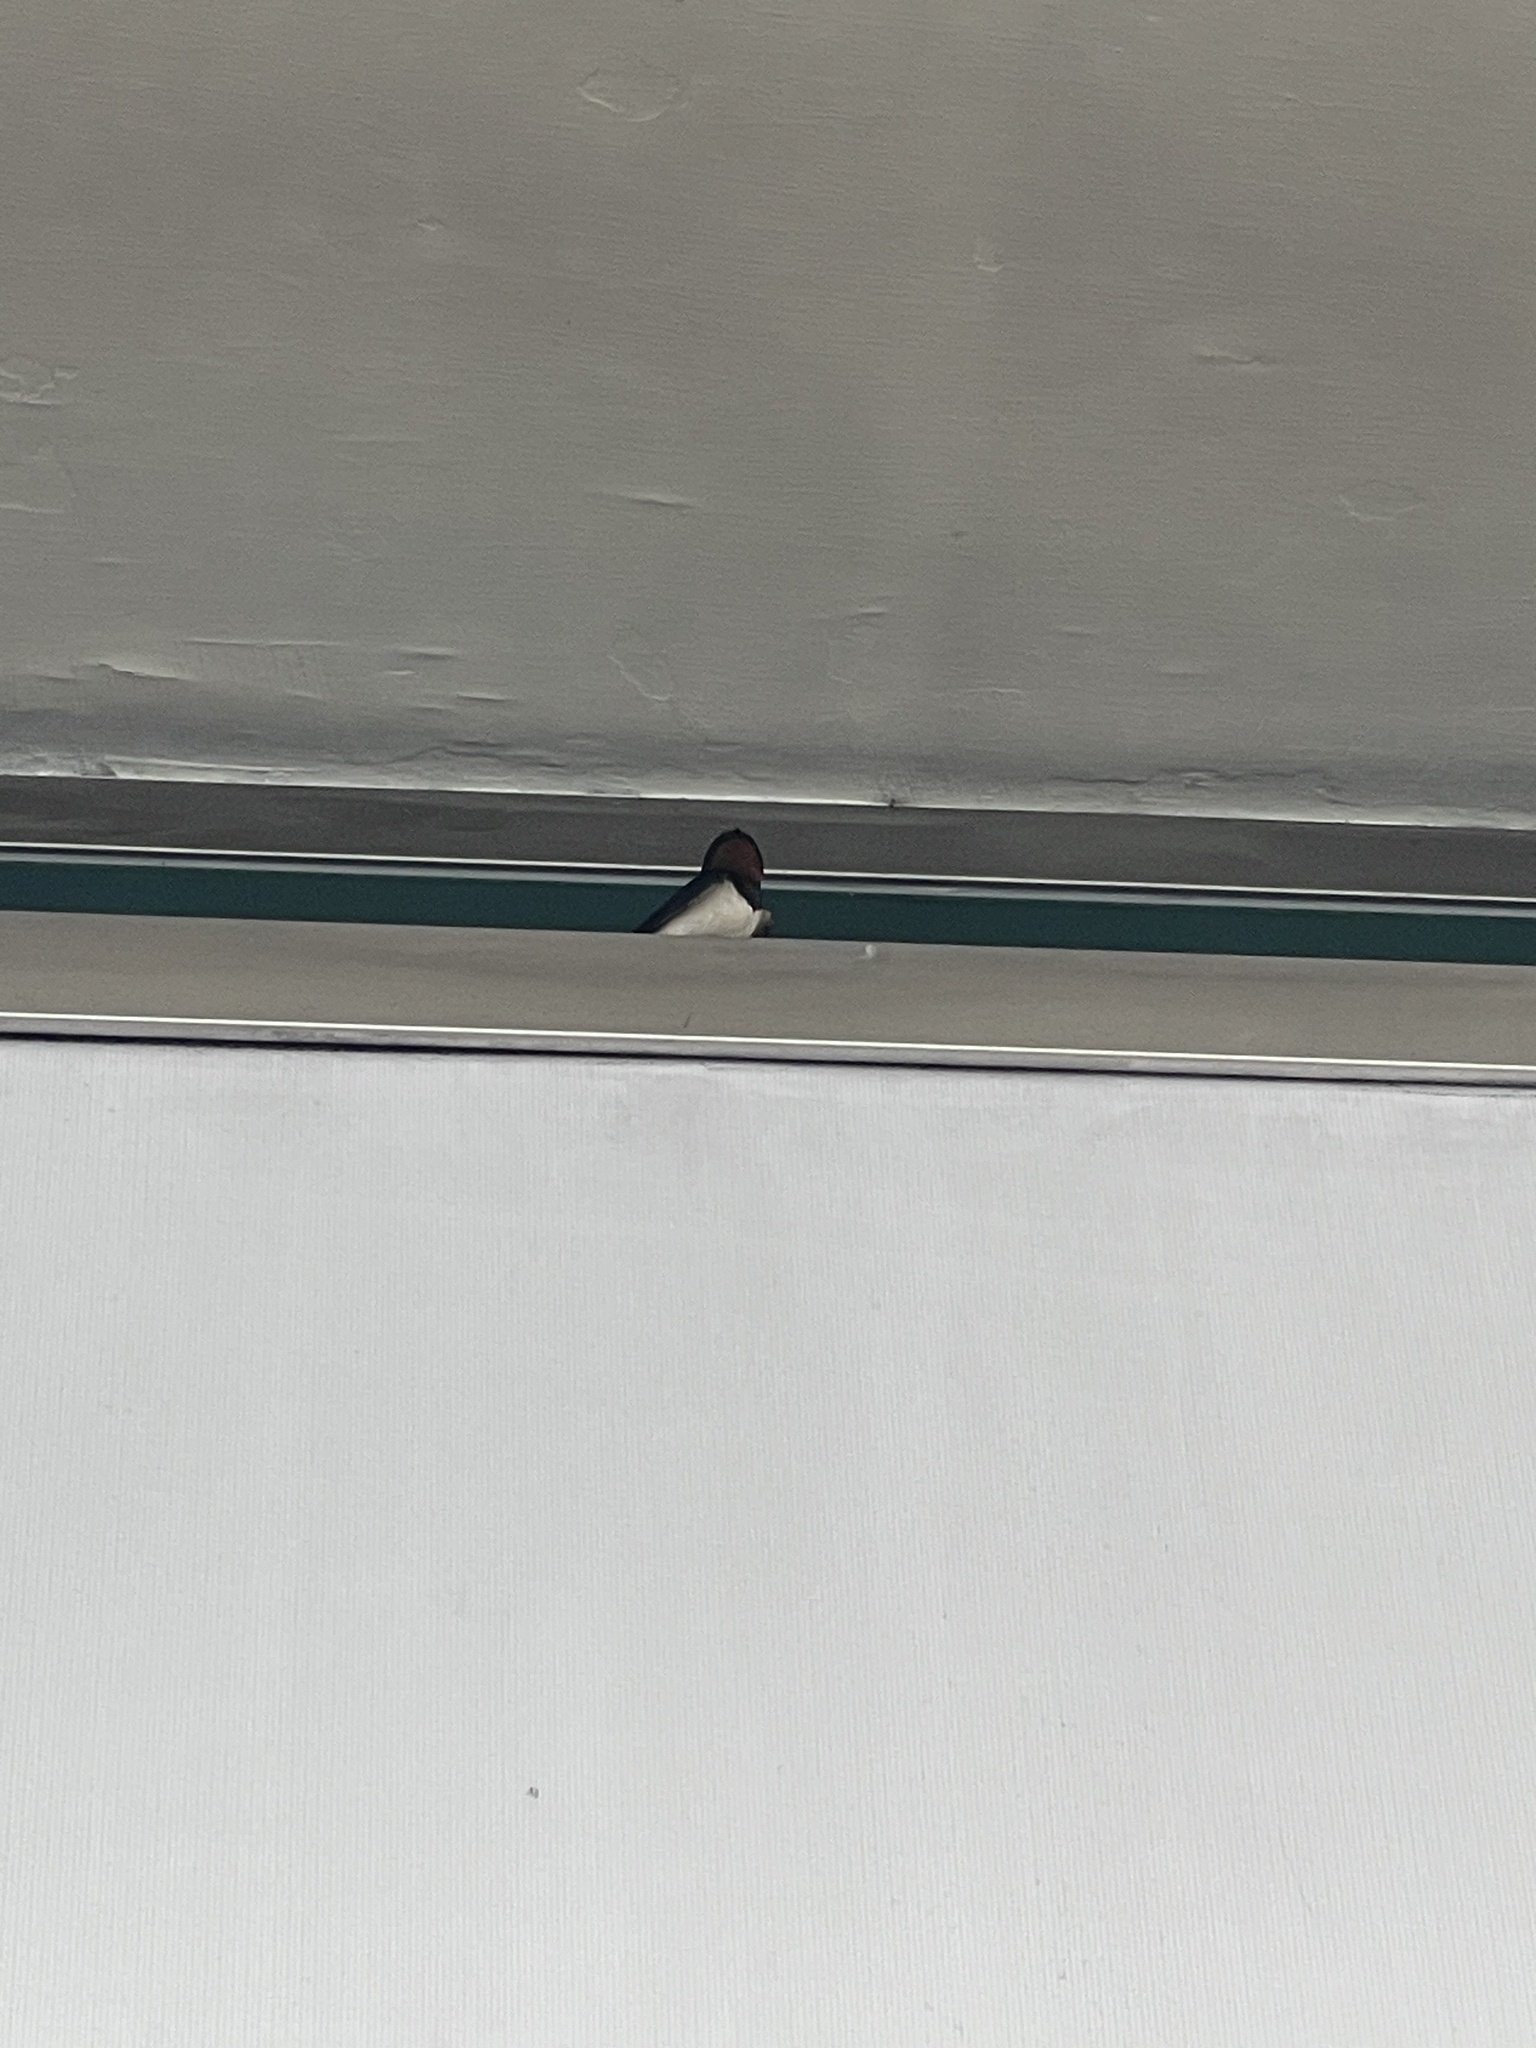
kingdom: Animalia
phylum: Chordata
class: Aves
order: Passeriformes
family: Hirundinidae
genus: Hirundo
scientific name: Hirundo rustica
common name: Barn swallow
